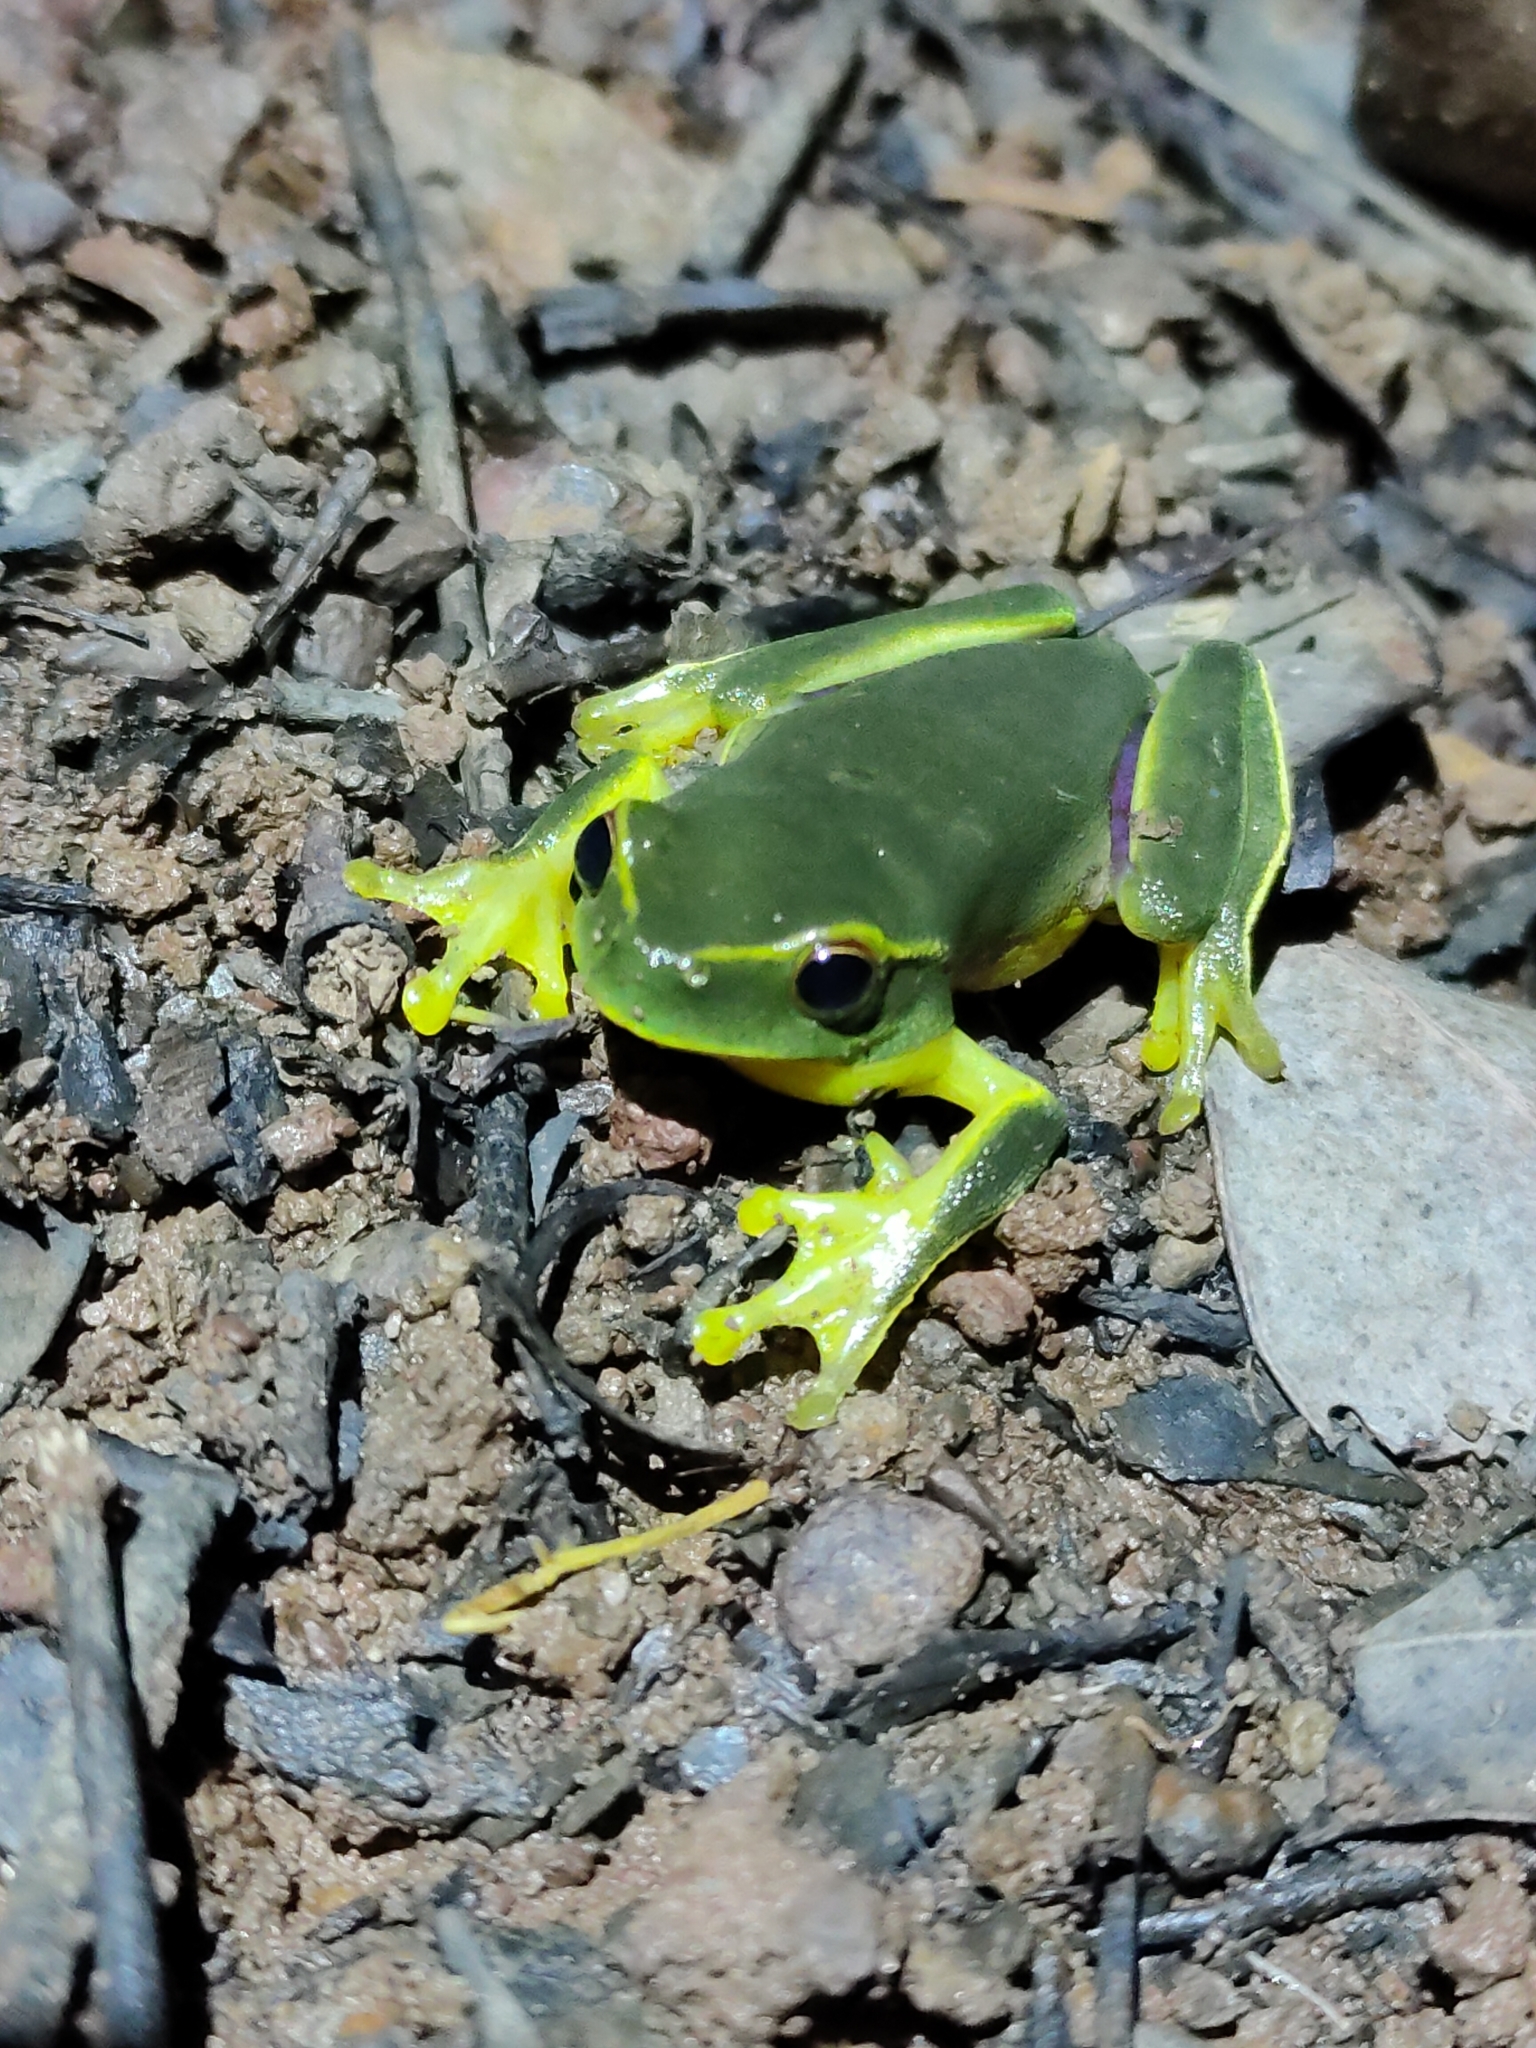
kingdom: Animalia
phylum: Chordata
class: Amphibia
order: Anura
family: Pelodryadidae
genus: Ranoidea
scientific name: Ranoidea gracilenta
